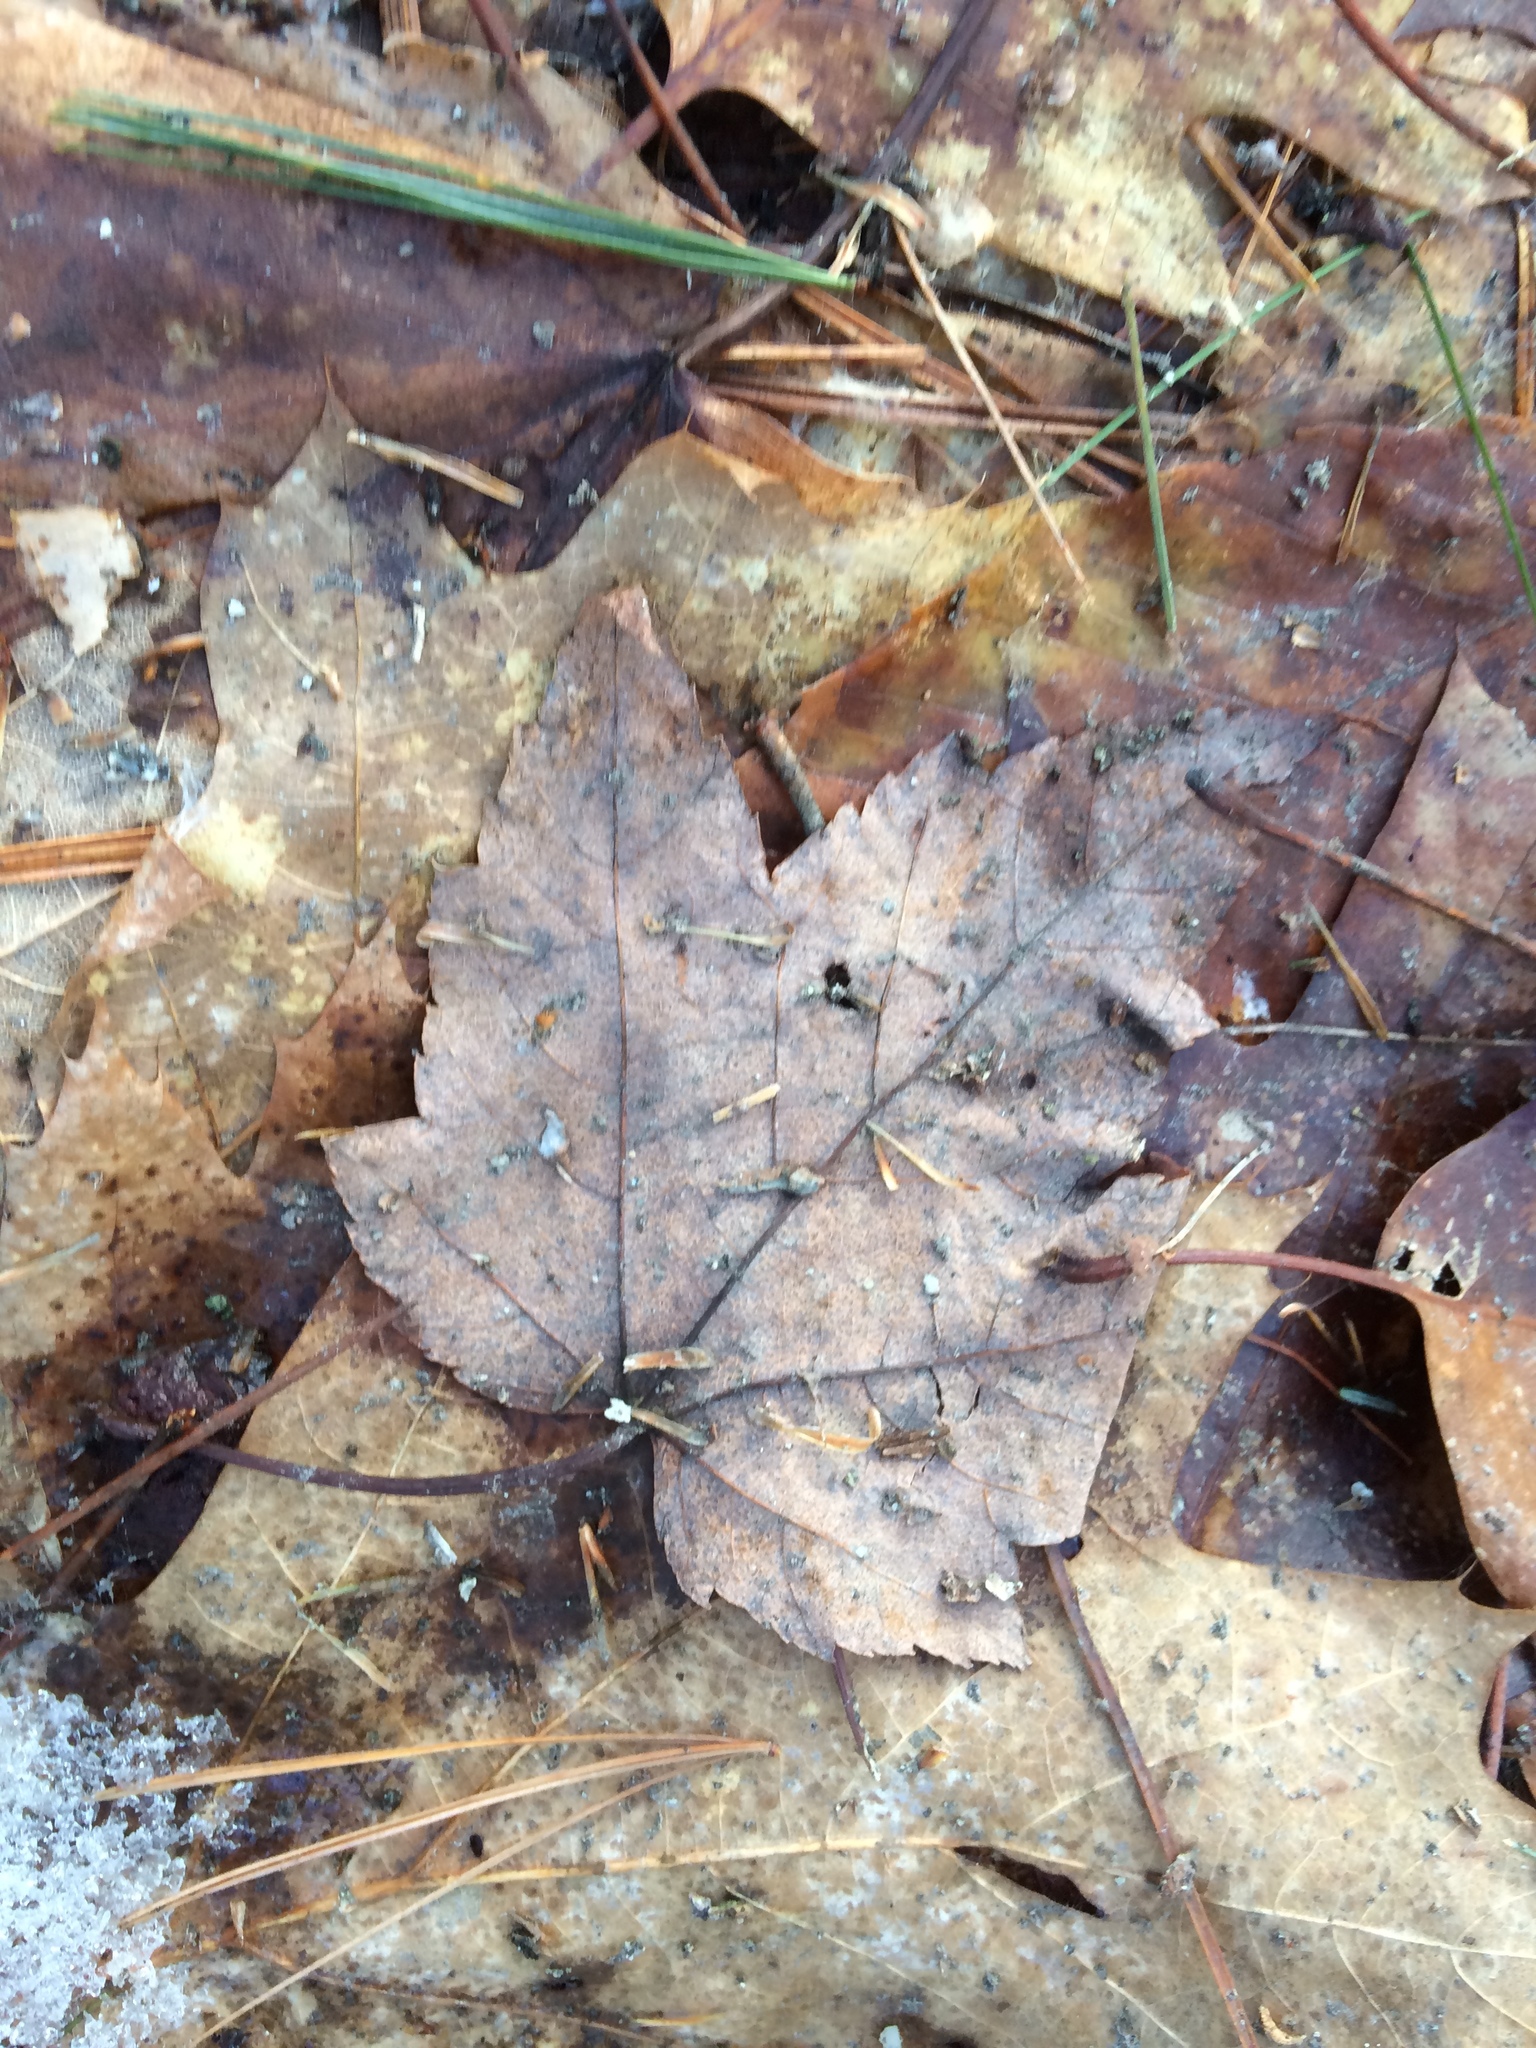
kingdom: Plantae
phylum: Tracheophyta
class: Magnoliopsida
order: Sapindales
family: Sapindaceae
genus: Acer
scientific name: Acer rubrum
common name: Red maple
